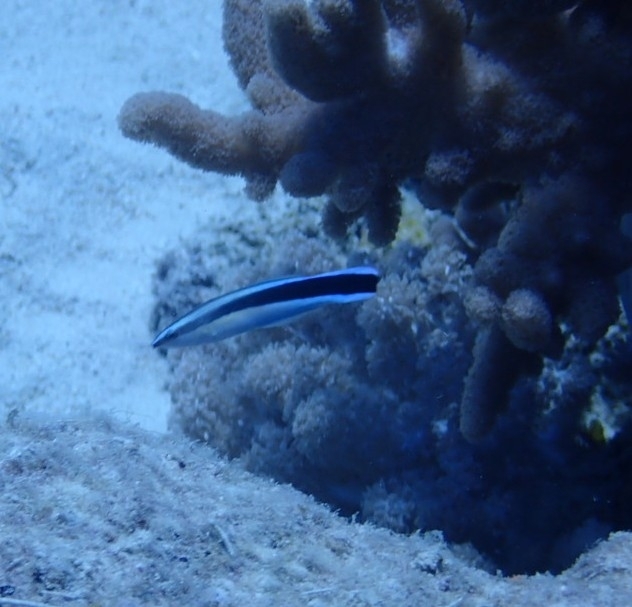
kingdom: Animalia
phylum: Chordata
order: Perciformes
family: Labridae
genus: Labroides
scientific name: Labroides dimidiatus
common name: Blue diesel wrasse
